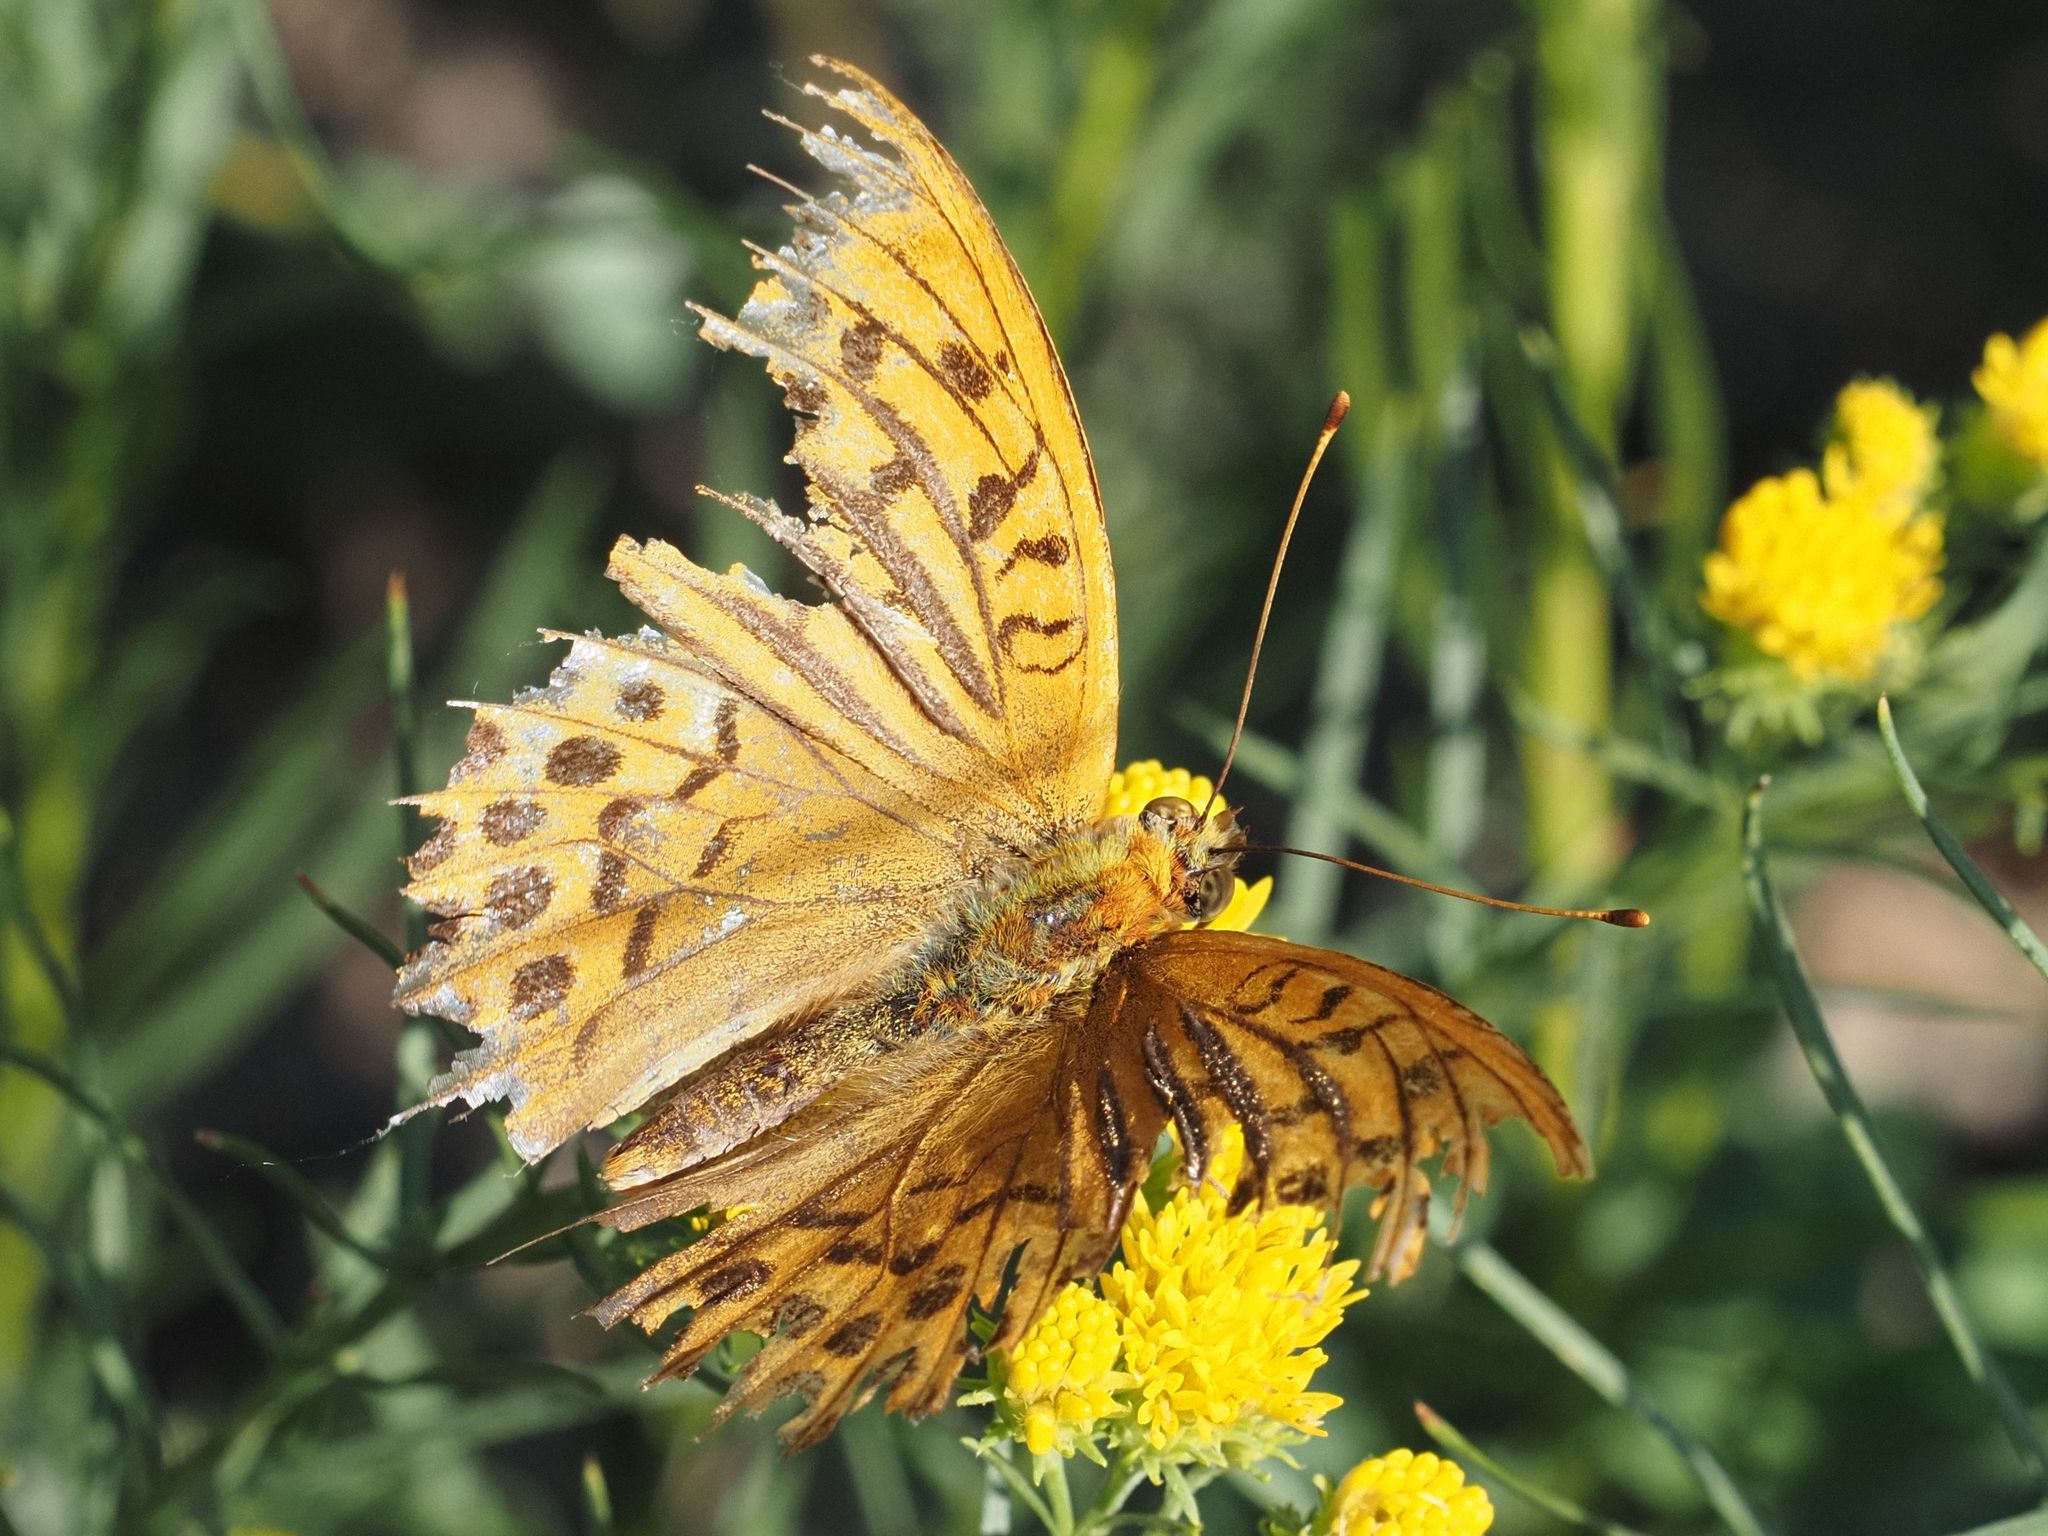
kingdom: Animalia
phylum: Arthropoda
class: Insecta
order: Lepidoptera
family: Nymphalidae
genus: Argynnis
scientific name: Argynnis paphia
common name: Silver-washed fritillary
